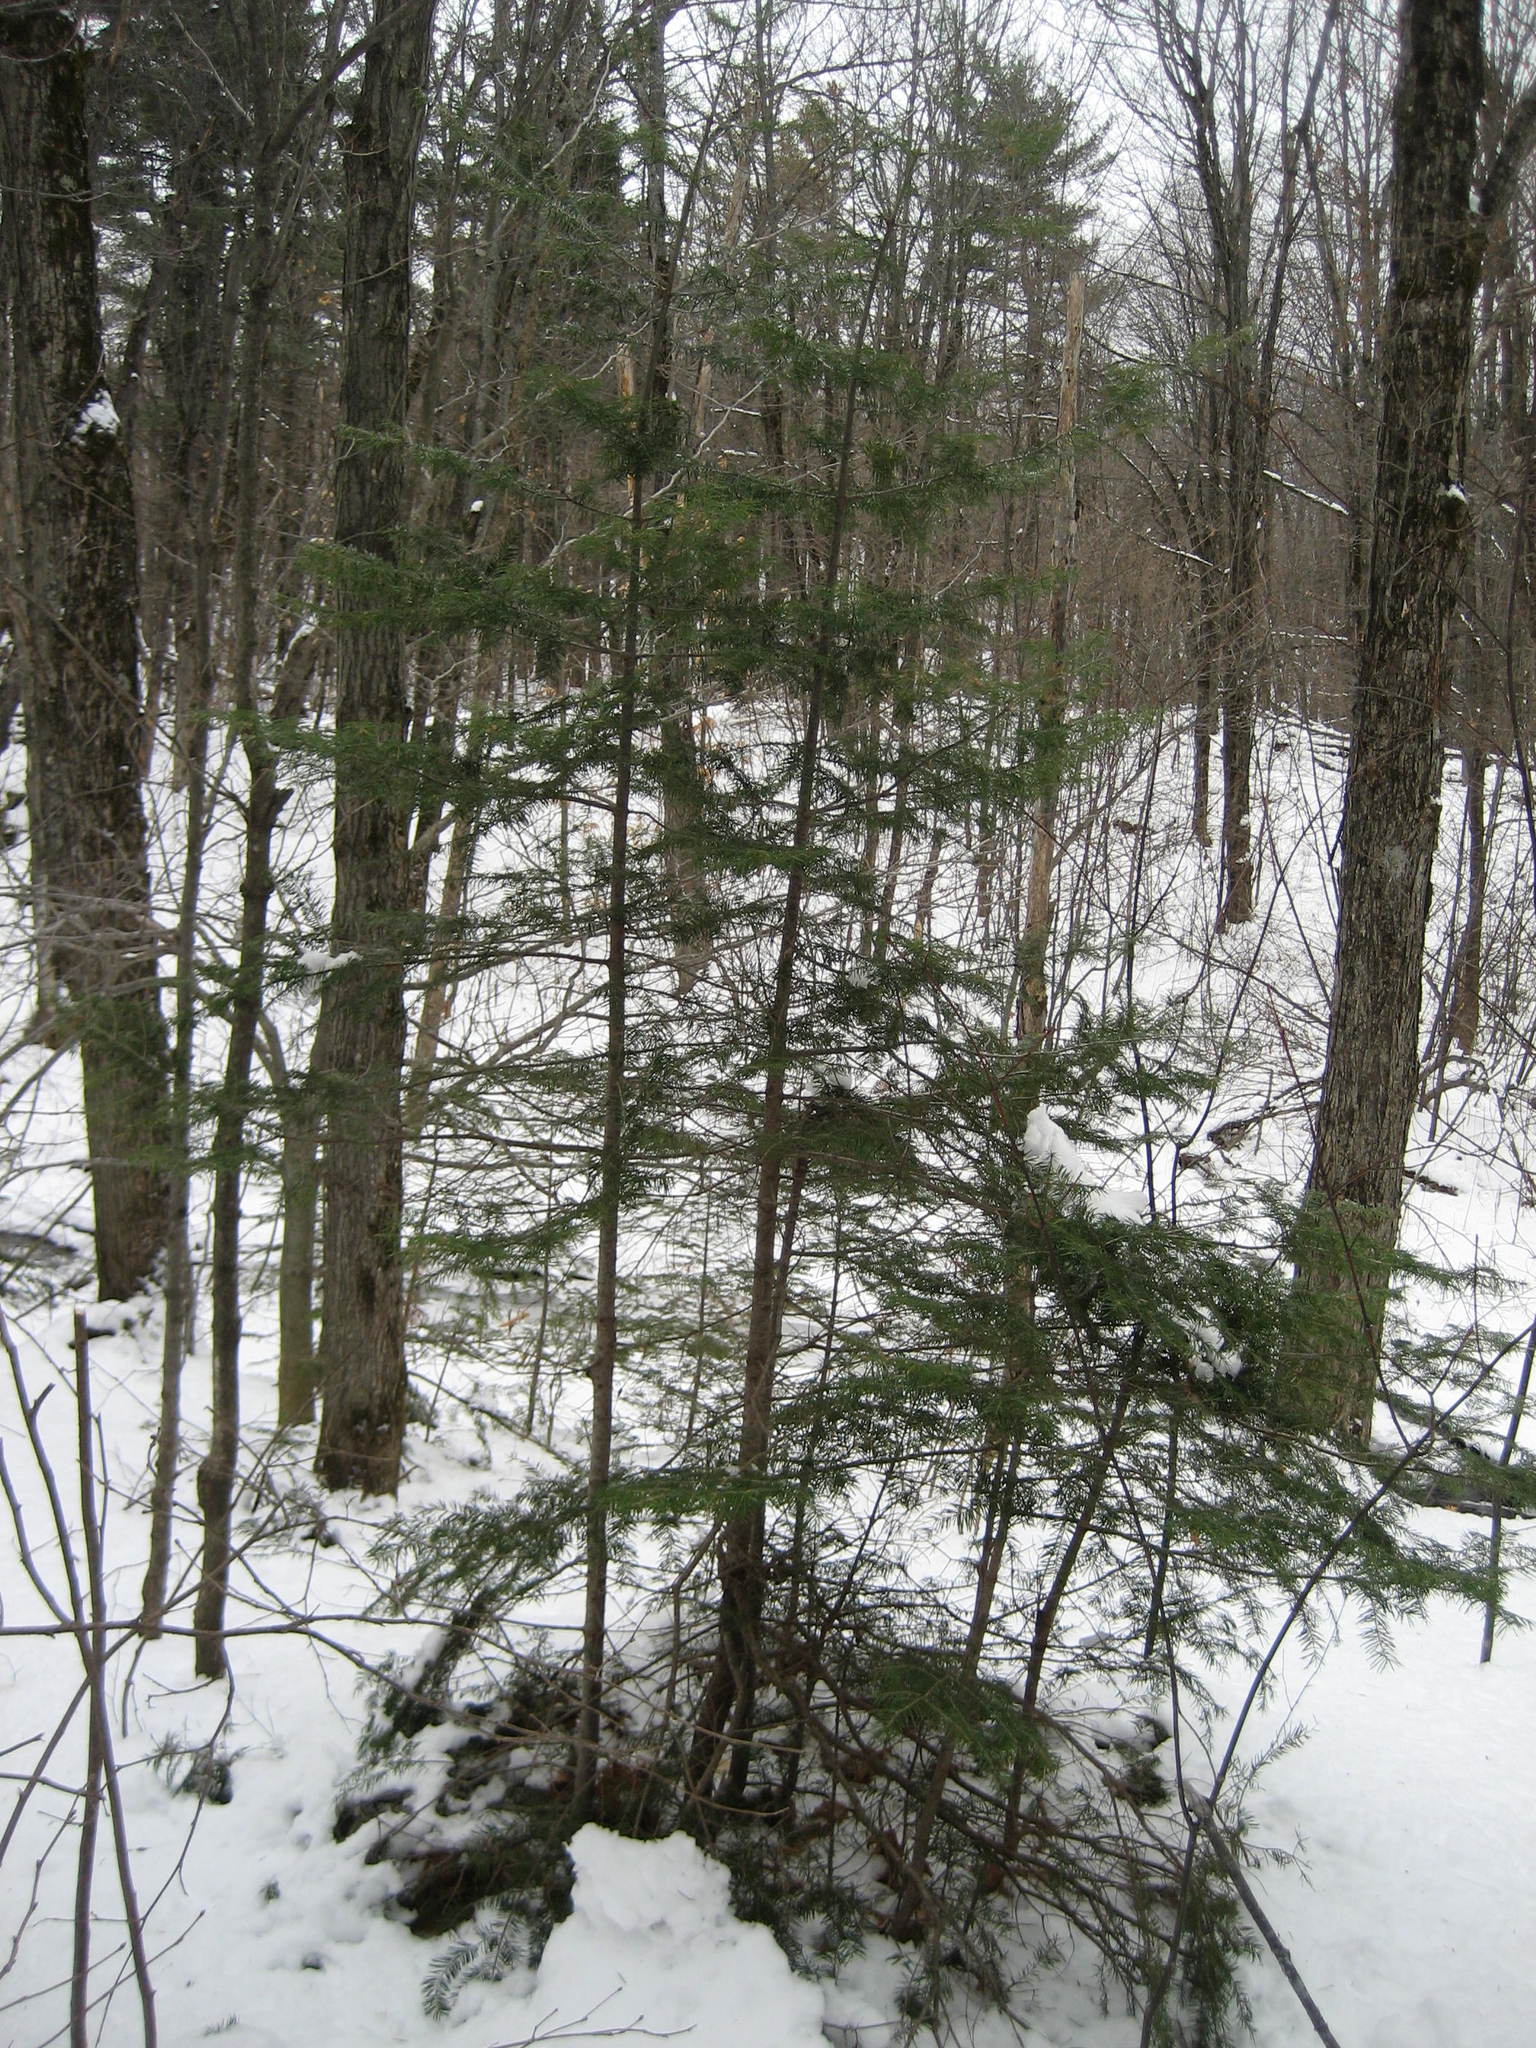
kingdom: Plantae
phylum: Tracheophyta
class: Pinopsida
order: Pinales
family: Pinaceae
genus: Abies
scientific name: Abies balsamea
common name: Balsam fir
